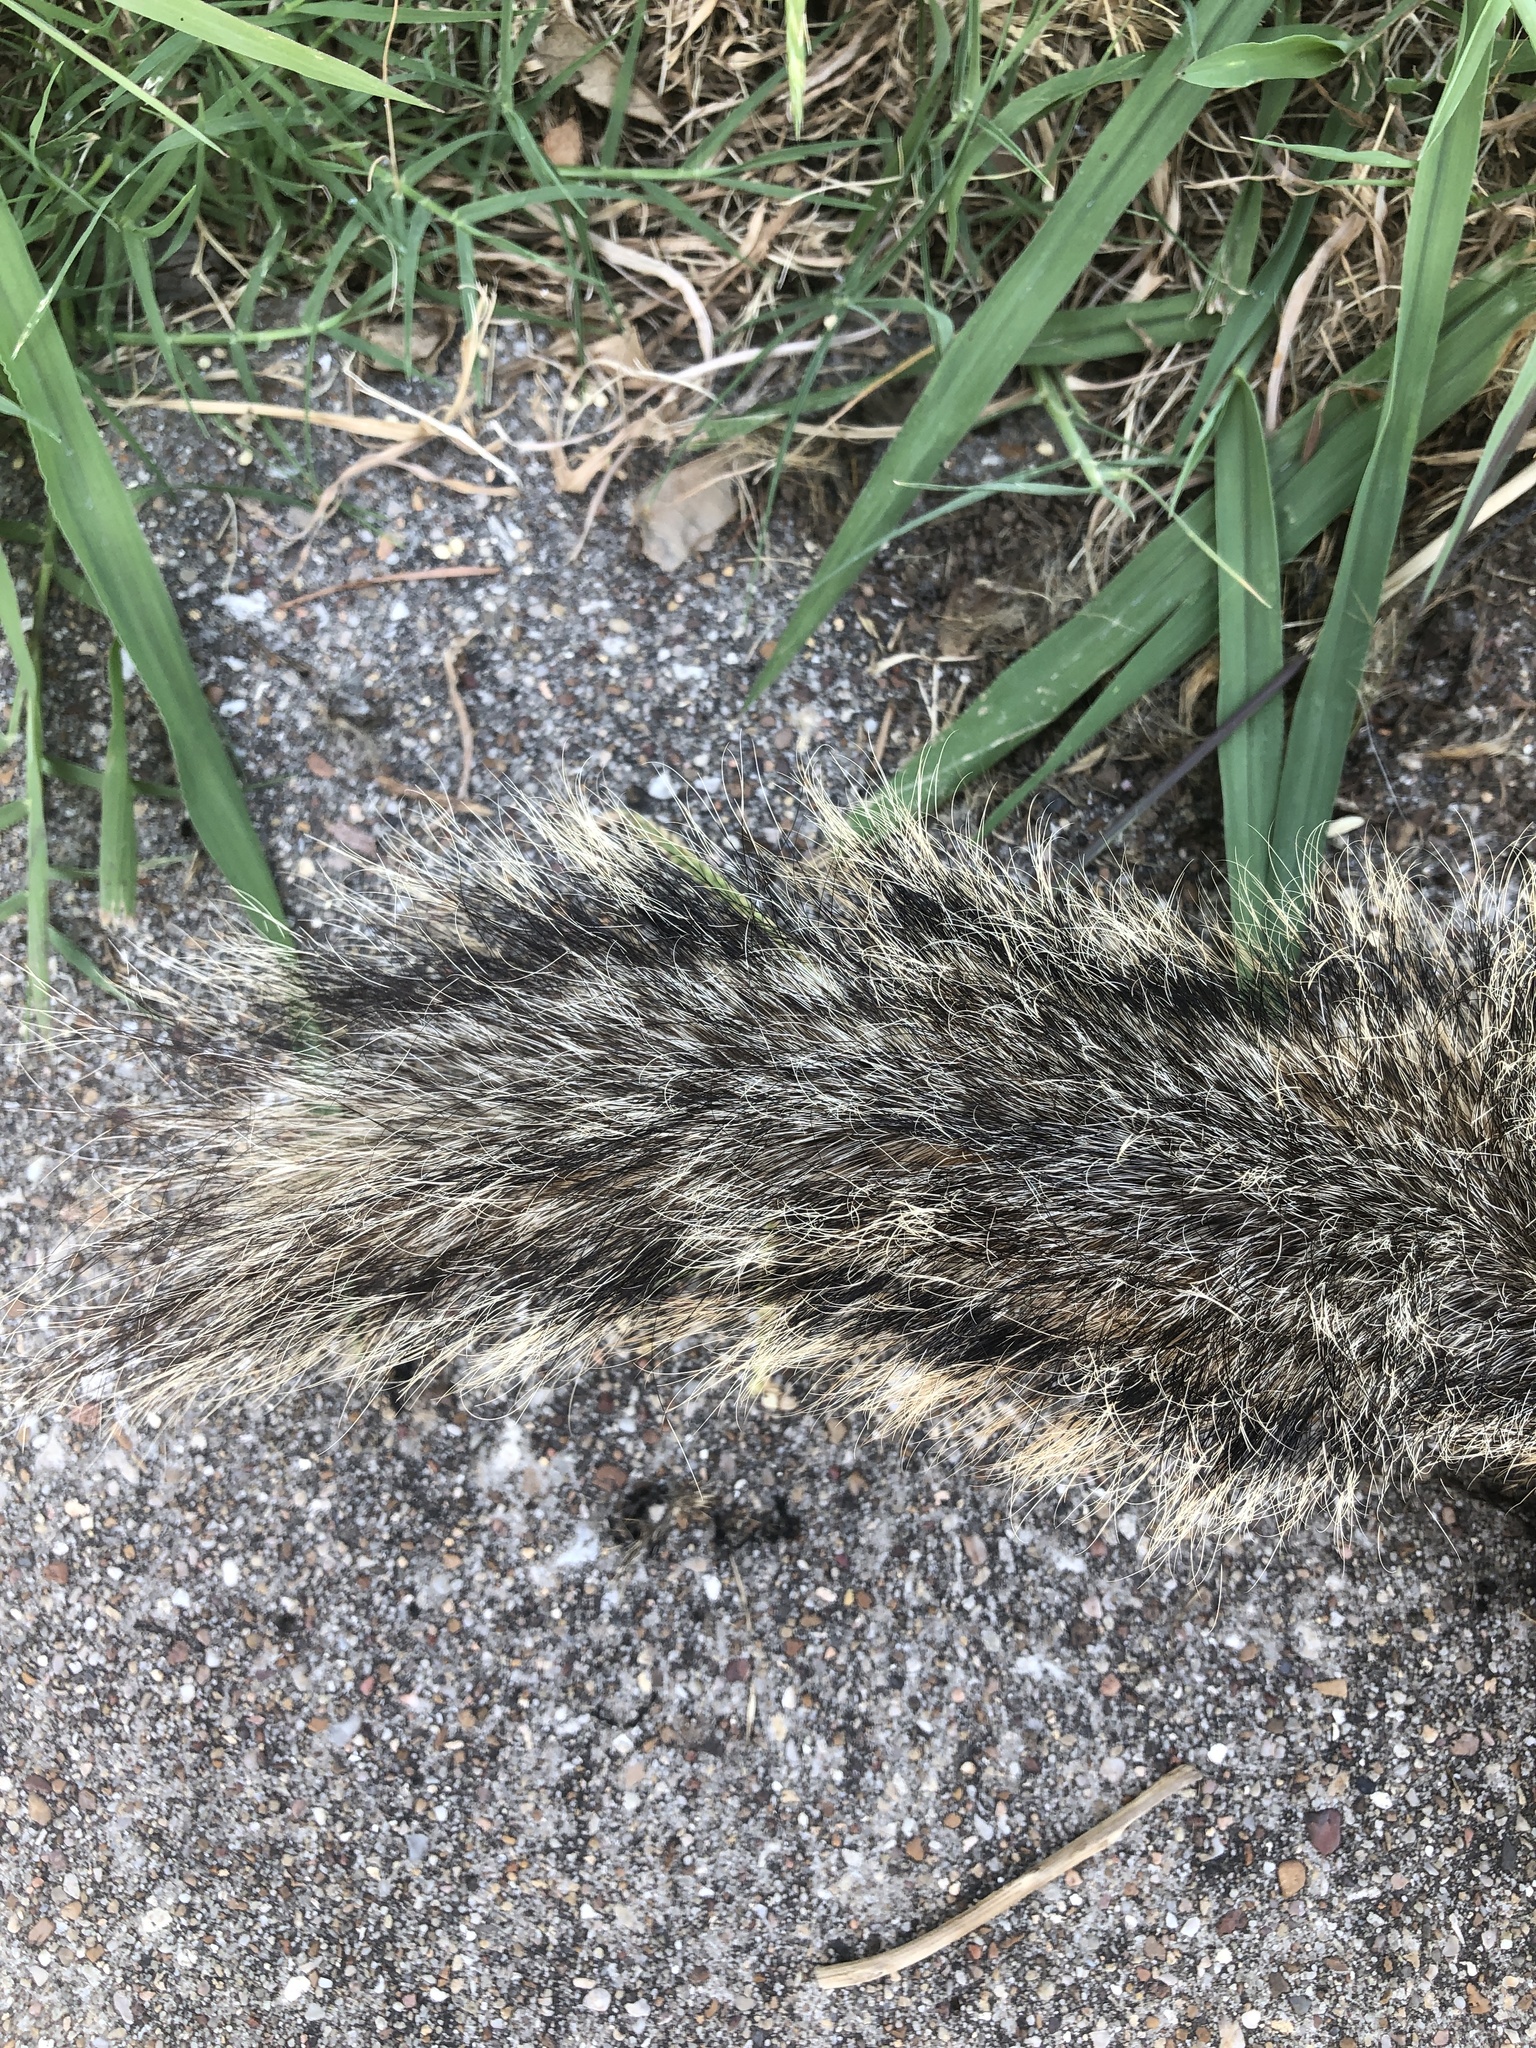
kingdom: Animalia
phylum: Chordata
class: Mammalia
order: Rodentia
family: Sciuridae
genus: Sciurus
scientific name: Sciurus niger
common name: Fox squirrel
